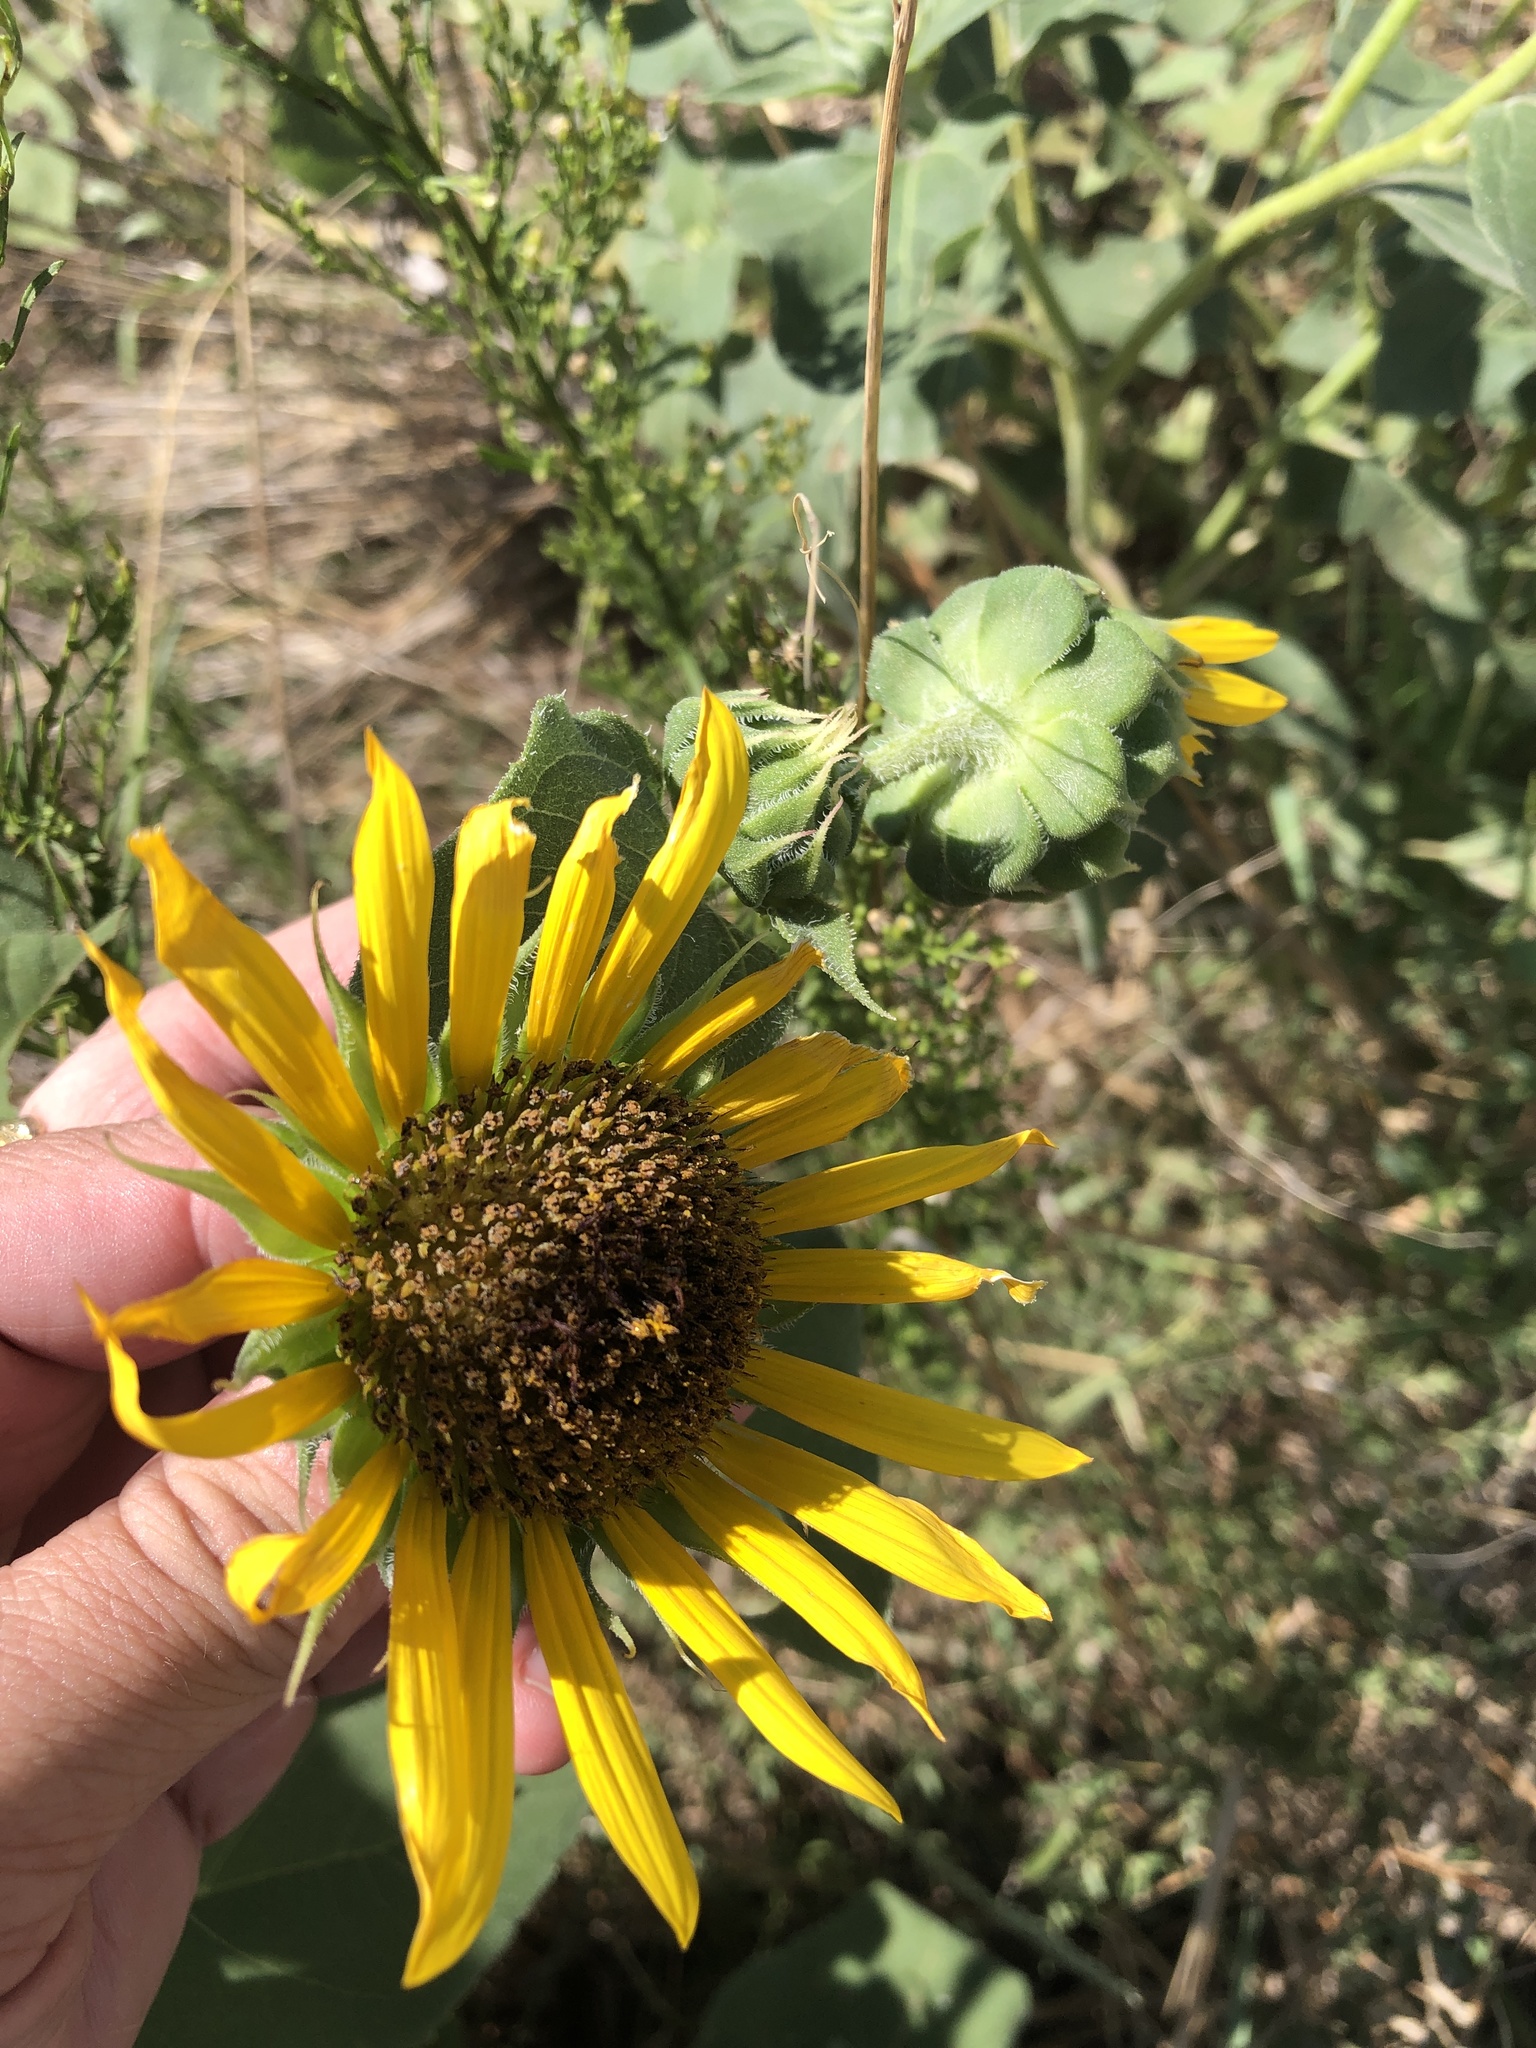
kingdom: Plantae
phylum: Tracheophyta
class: Magnoliopsida
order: Asterales
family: Asteraceae
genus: Helianthus
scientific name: Helianthus annuus
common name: Sunflower
